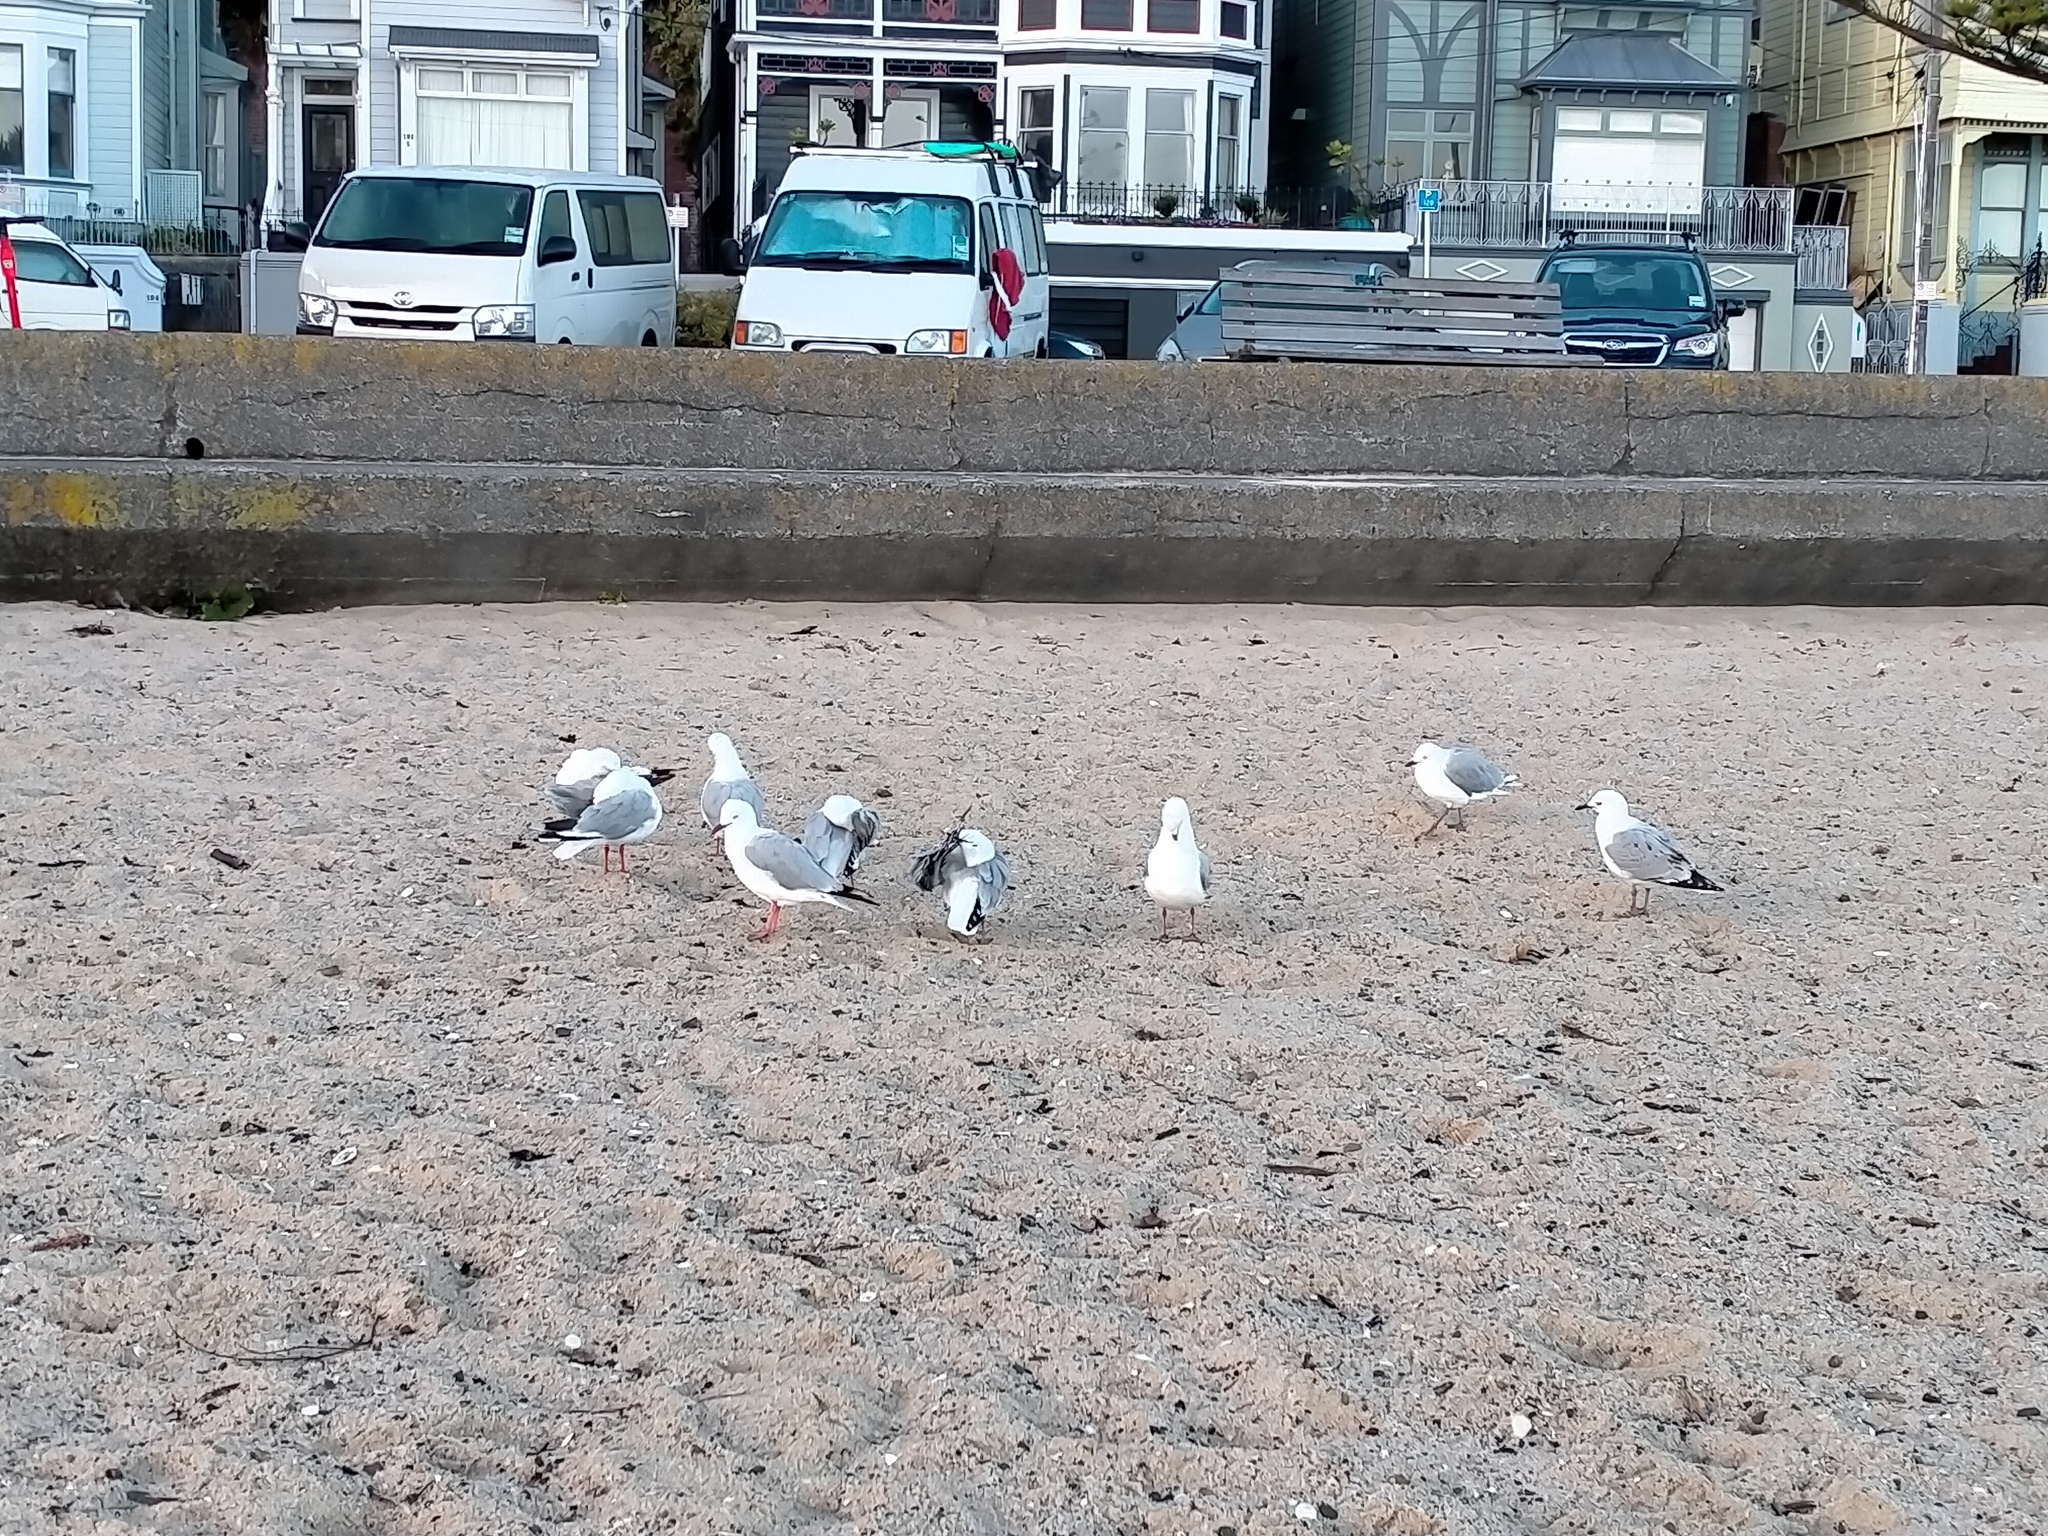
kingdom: Animalia
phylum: Chordata
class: Aves
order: Charadriiformes
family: Laridae
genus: Chroicocephalus
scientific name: Chroicocephalus novaehollandiae
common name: Silver gull
